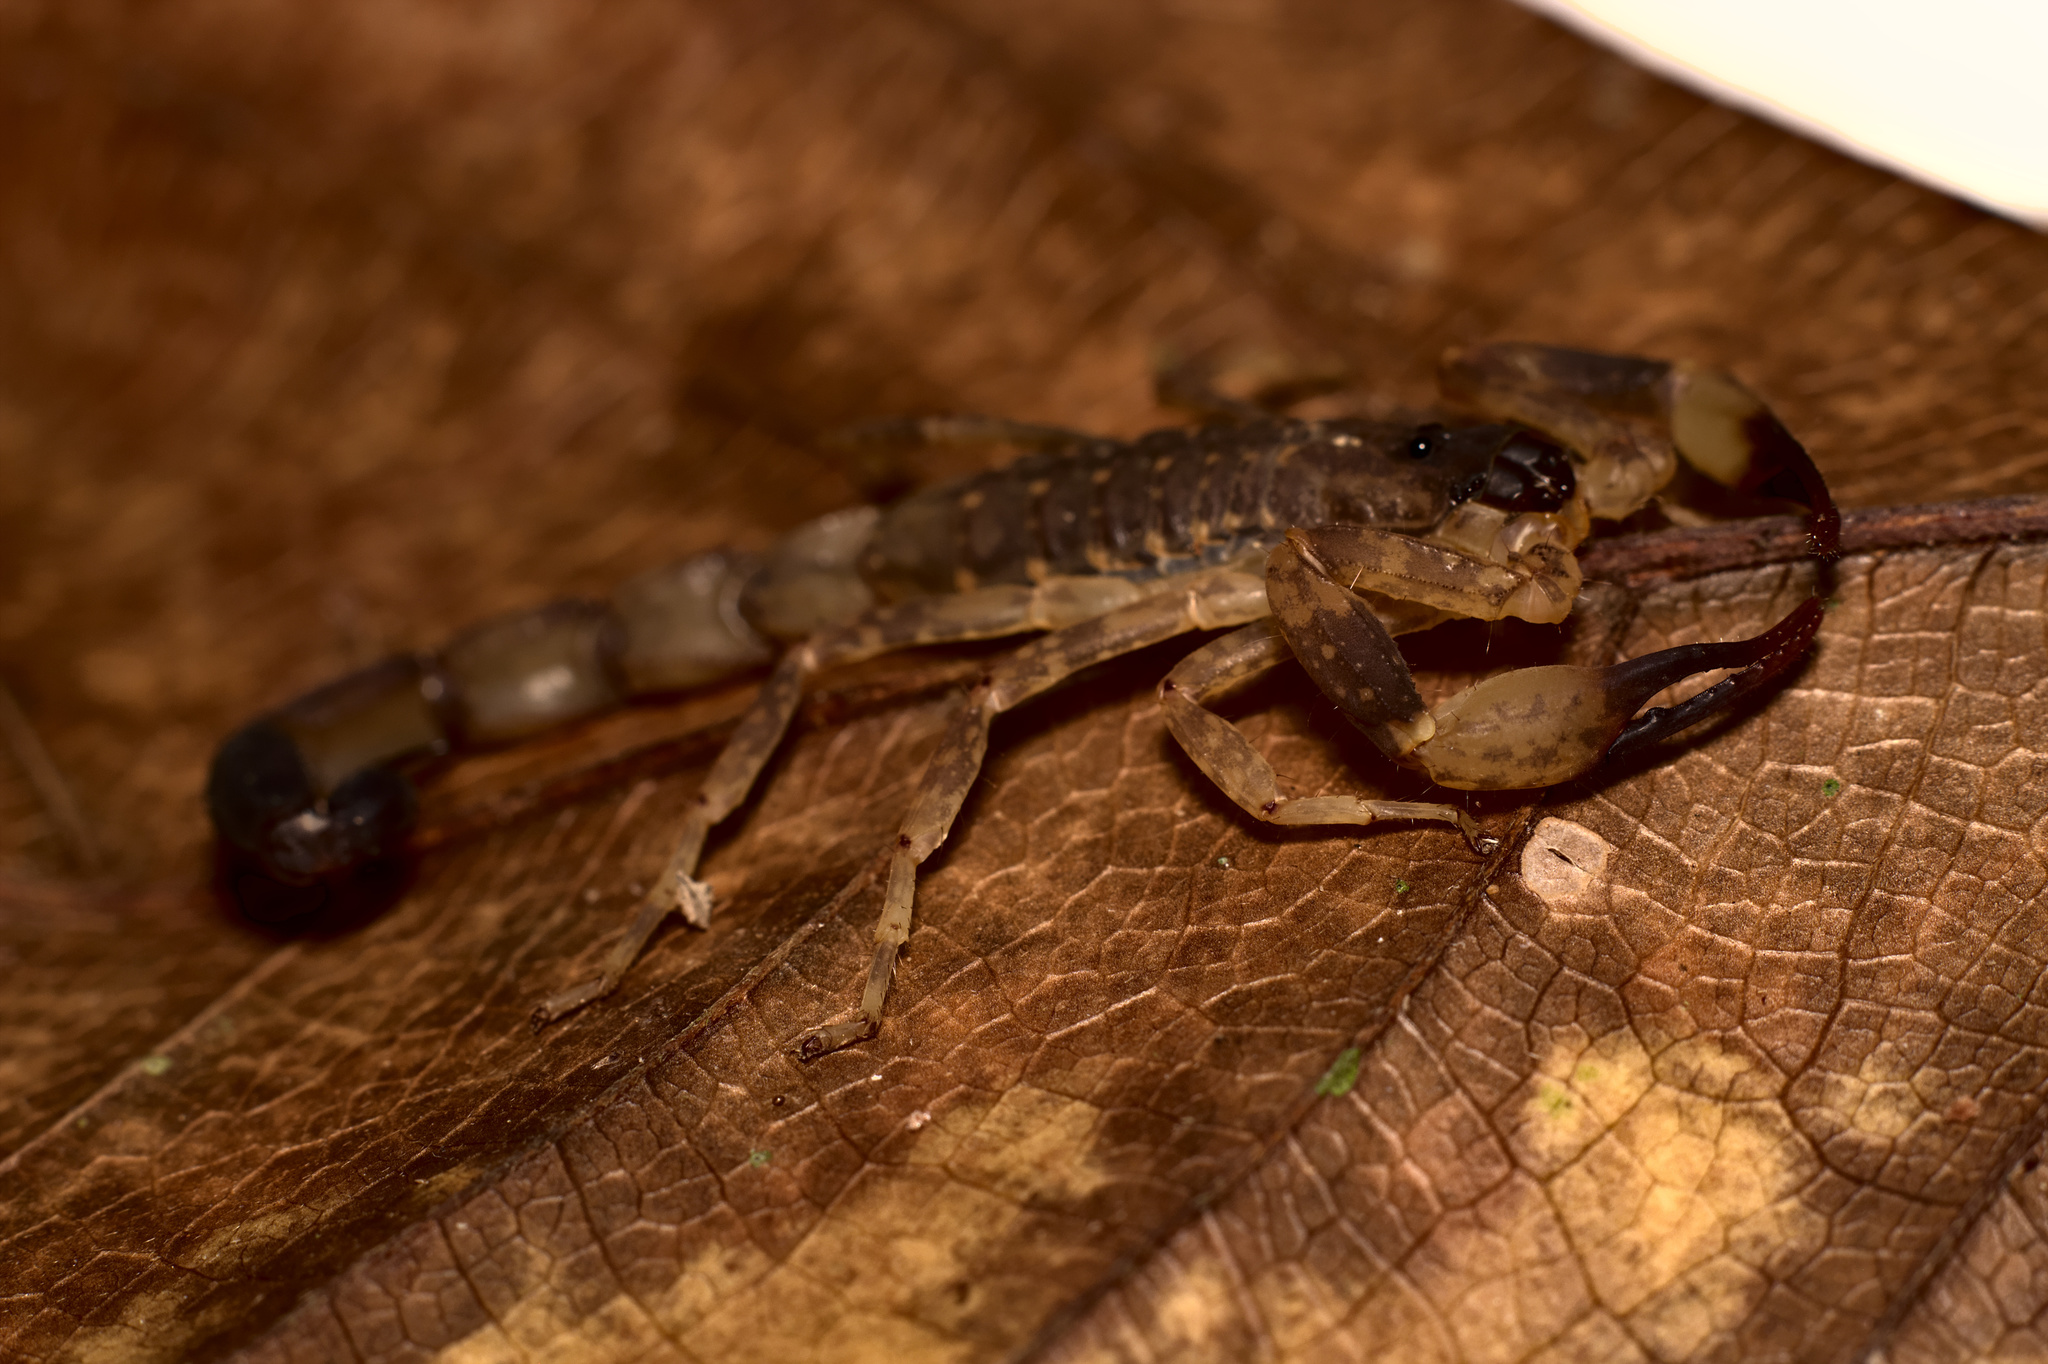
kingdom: Animalia
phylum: Arthropoda
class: Arachnida
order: Scorpiones
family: Buthidae
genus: Lychas
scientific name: Lychas mucronatus
